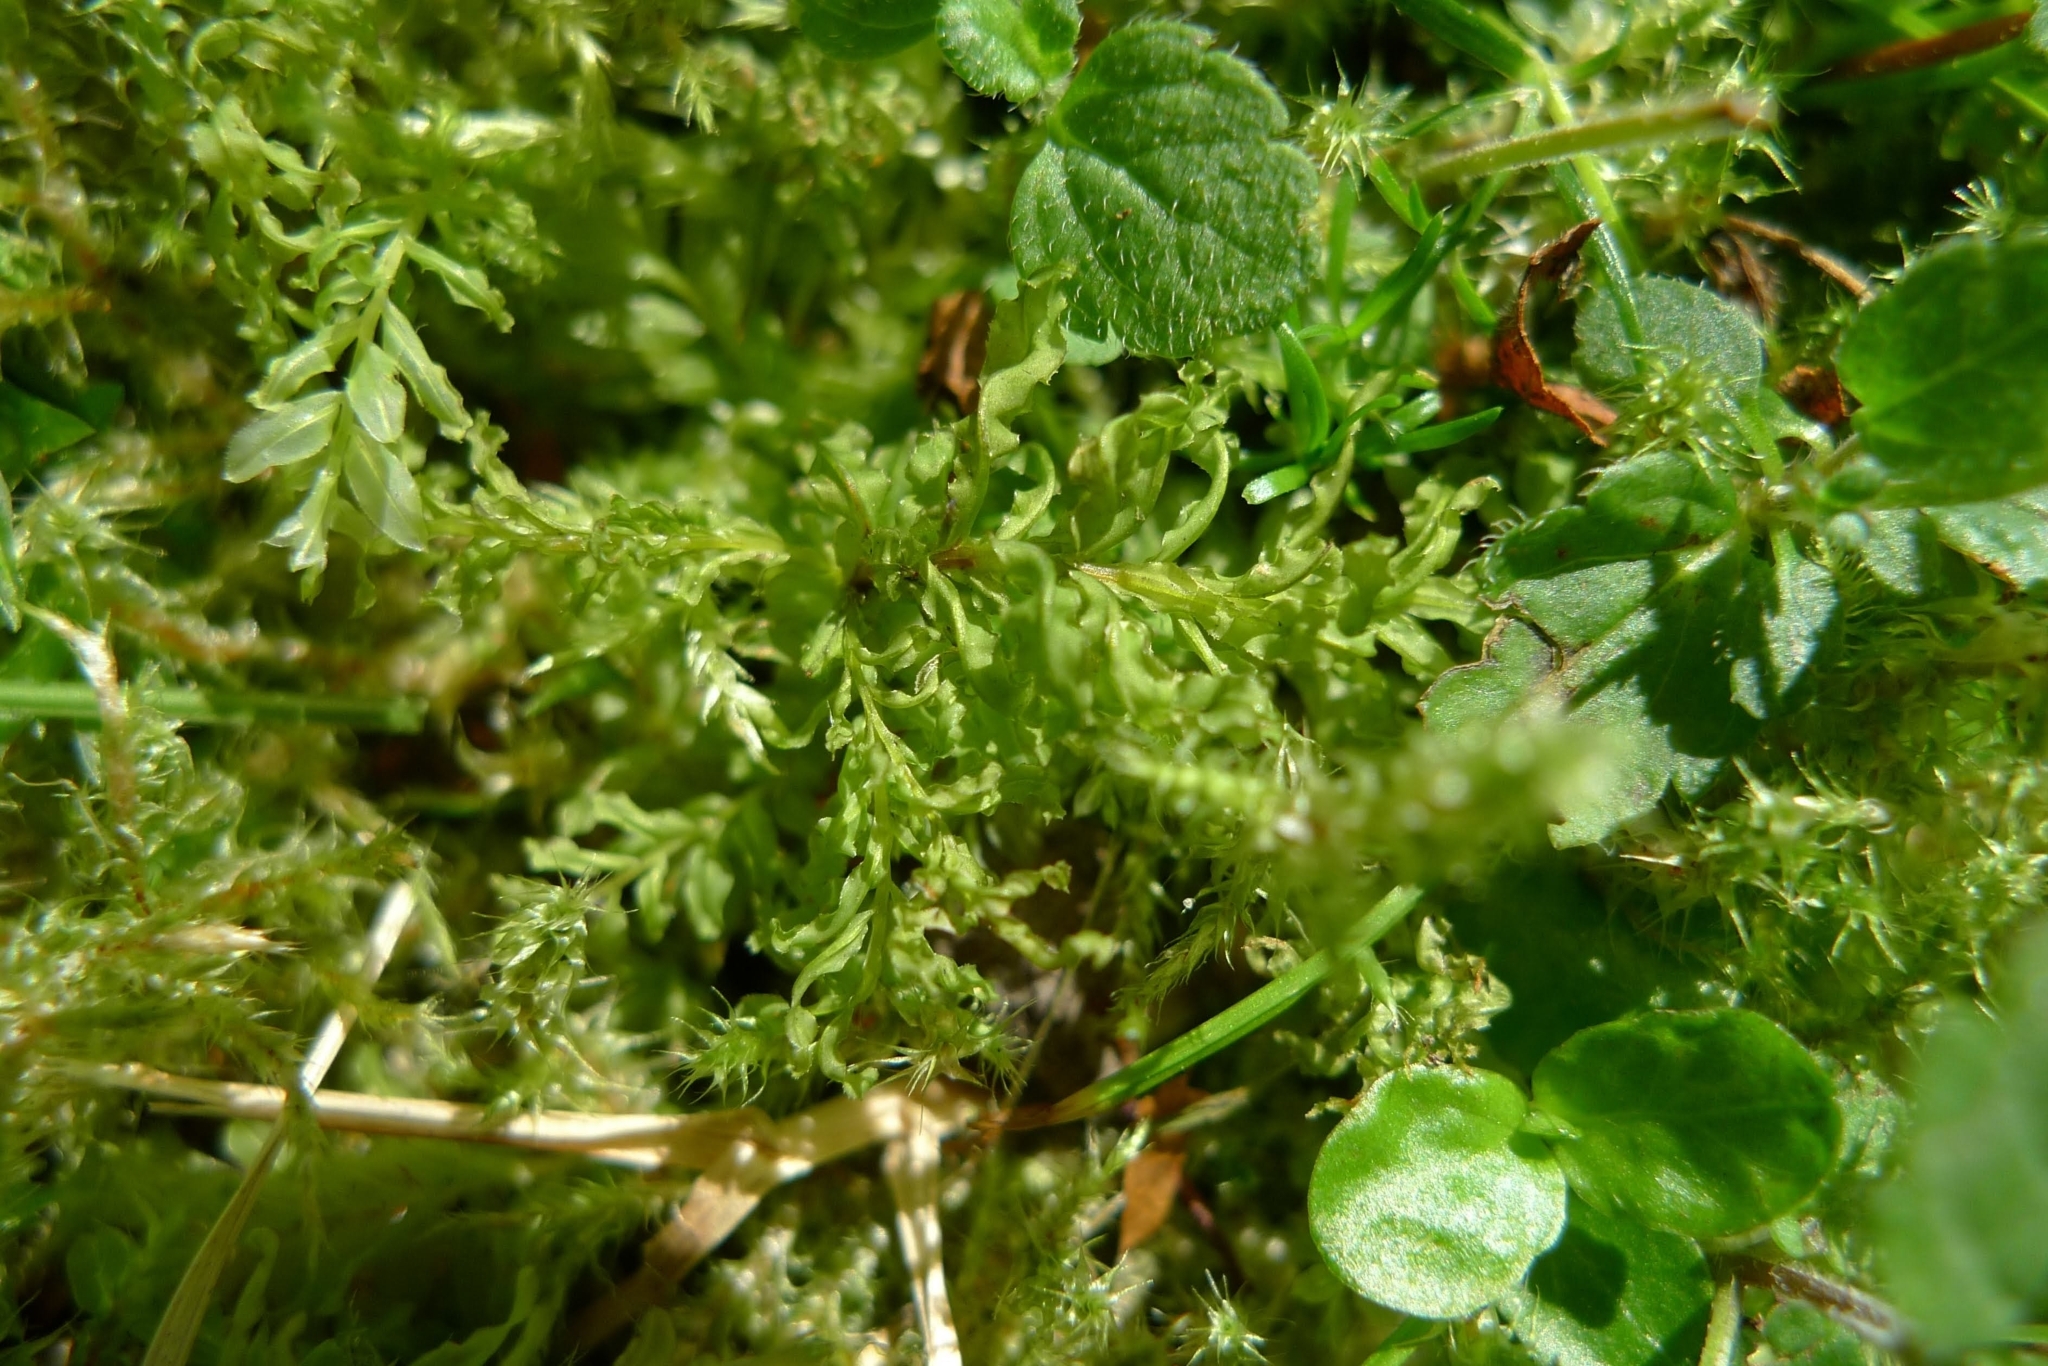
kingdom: Plantae
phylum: Bryophyta
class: Bryopsida
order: Bryales
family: Mniaceae
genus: Plagiomnium
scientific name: Plagiomnium undulatum
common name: Hart's-tongue thyme-moss
